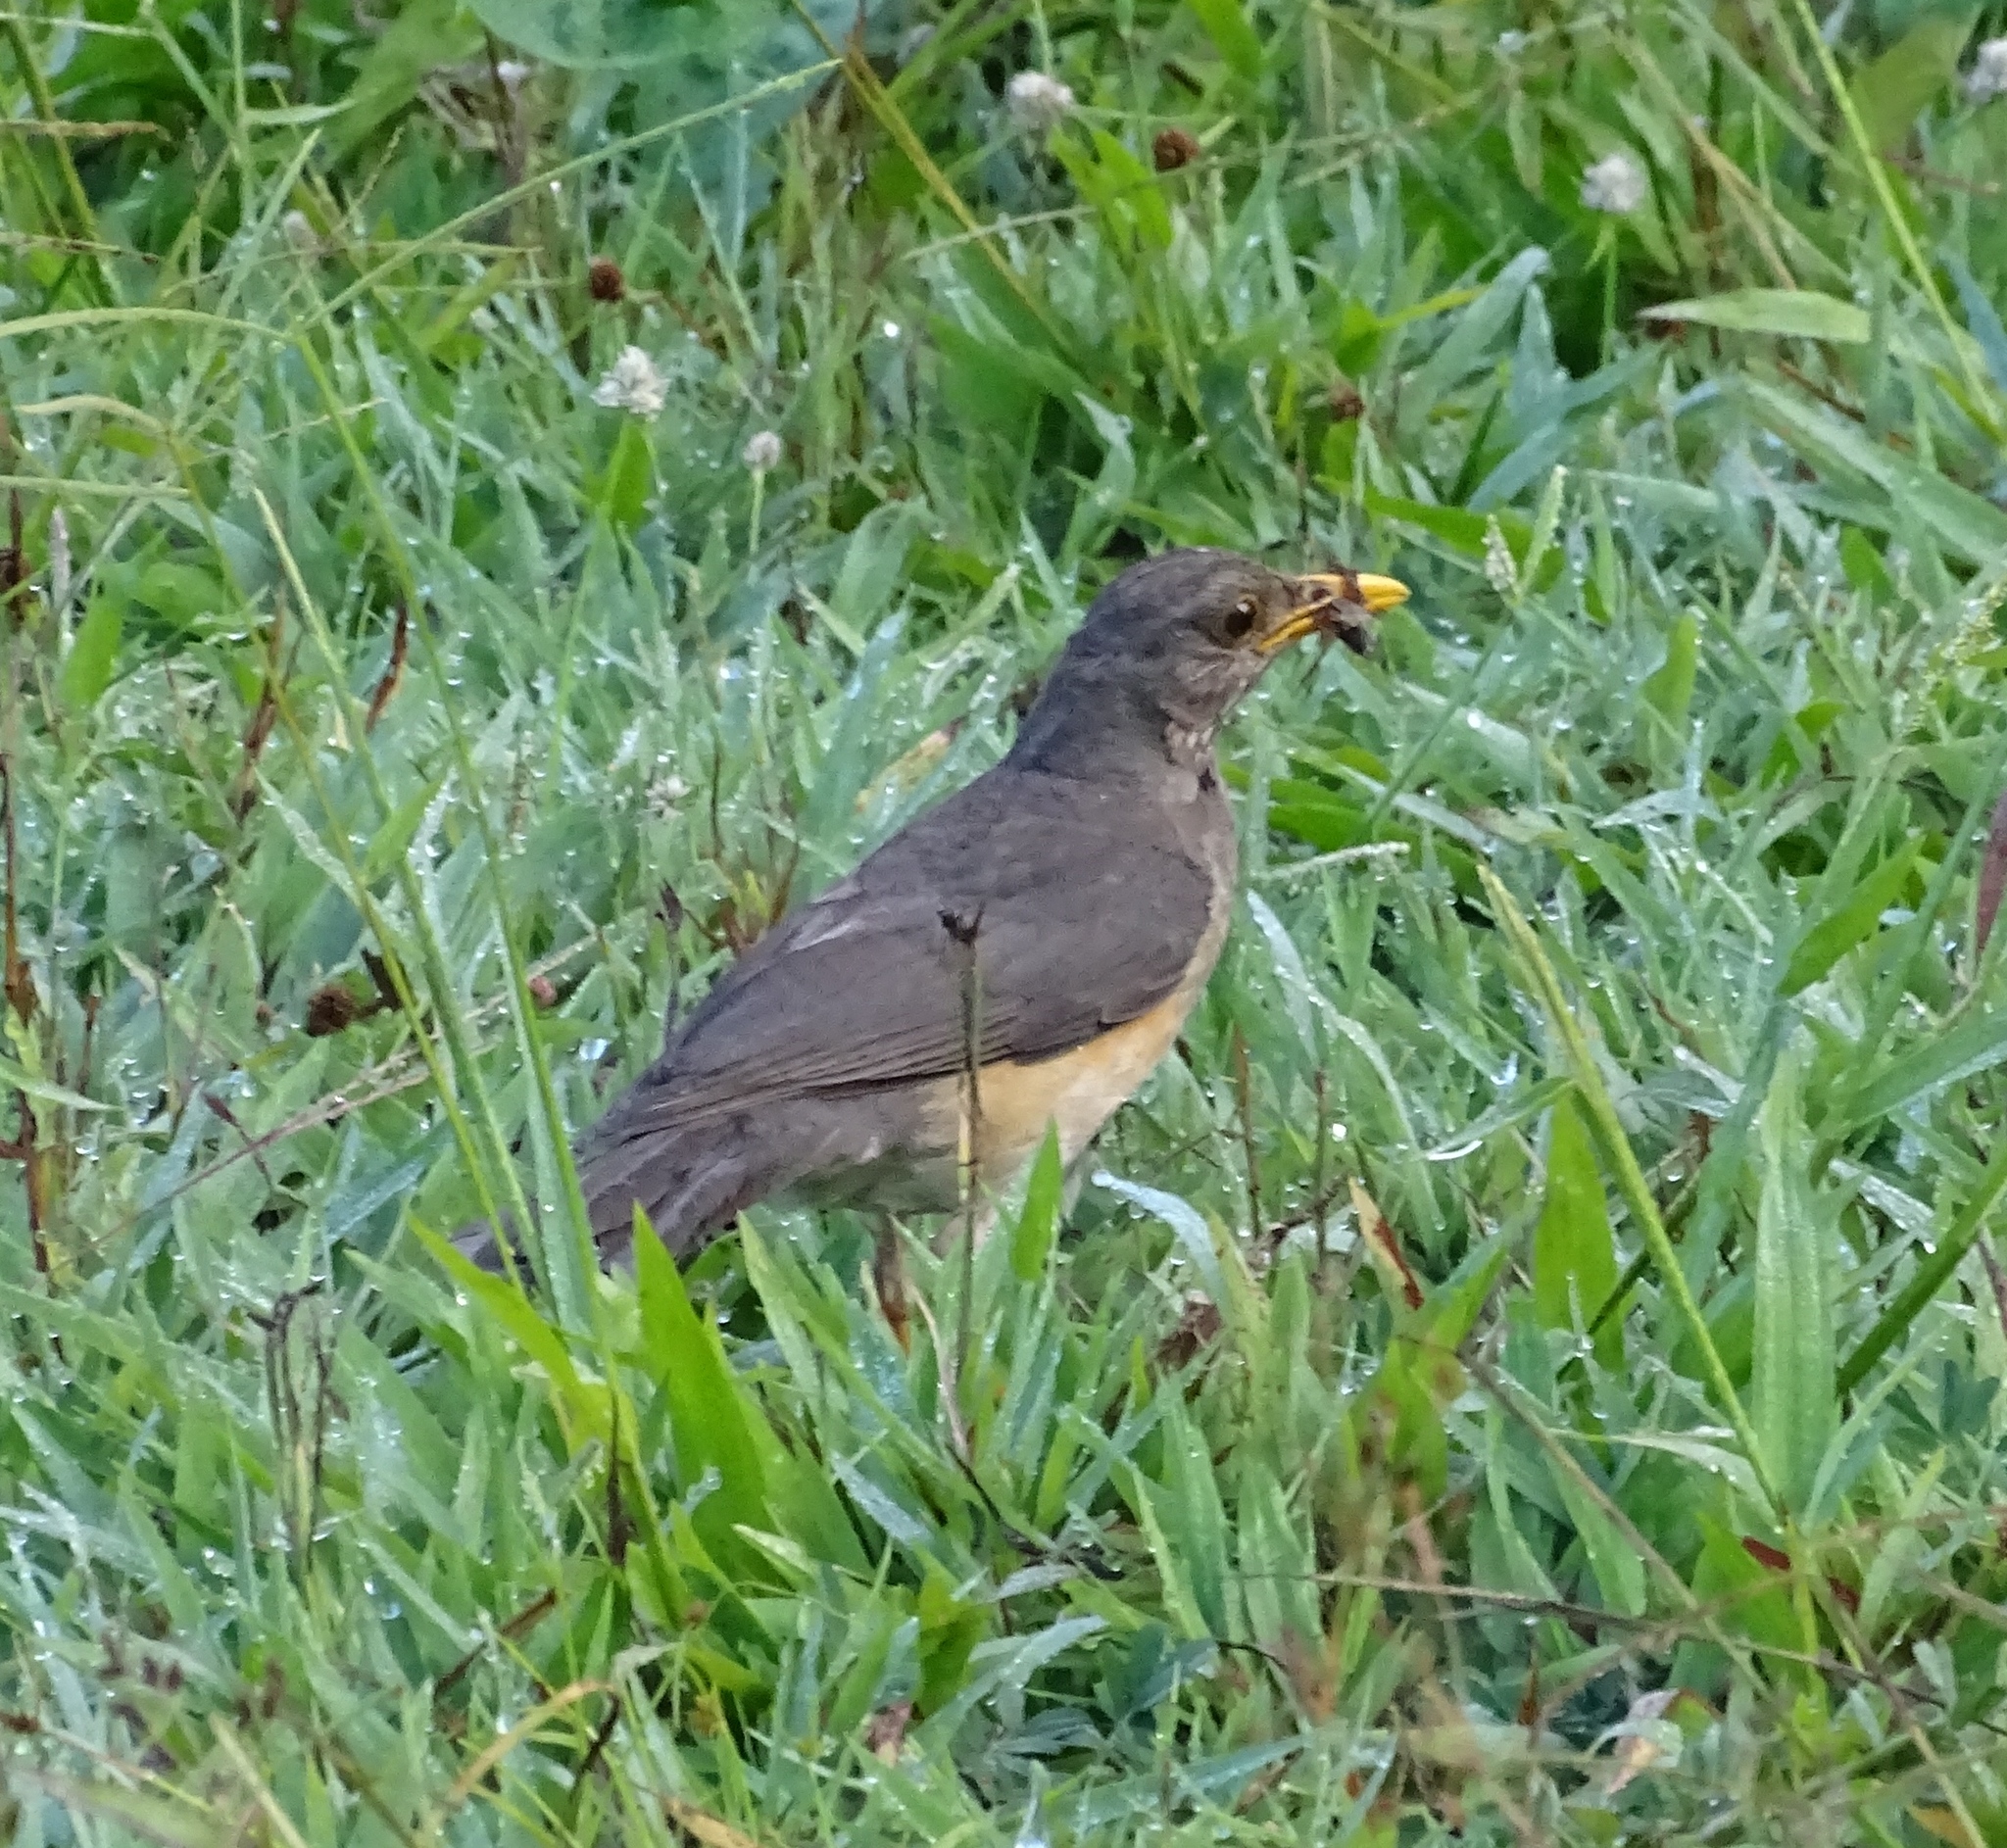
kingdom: Animalia
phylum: Chordata
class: Aves
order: Passeriformes
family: Turdidae
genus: Turdus
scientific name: Turdus pelios
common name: African thrush
